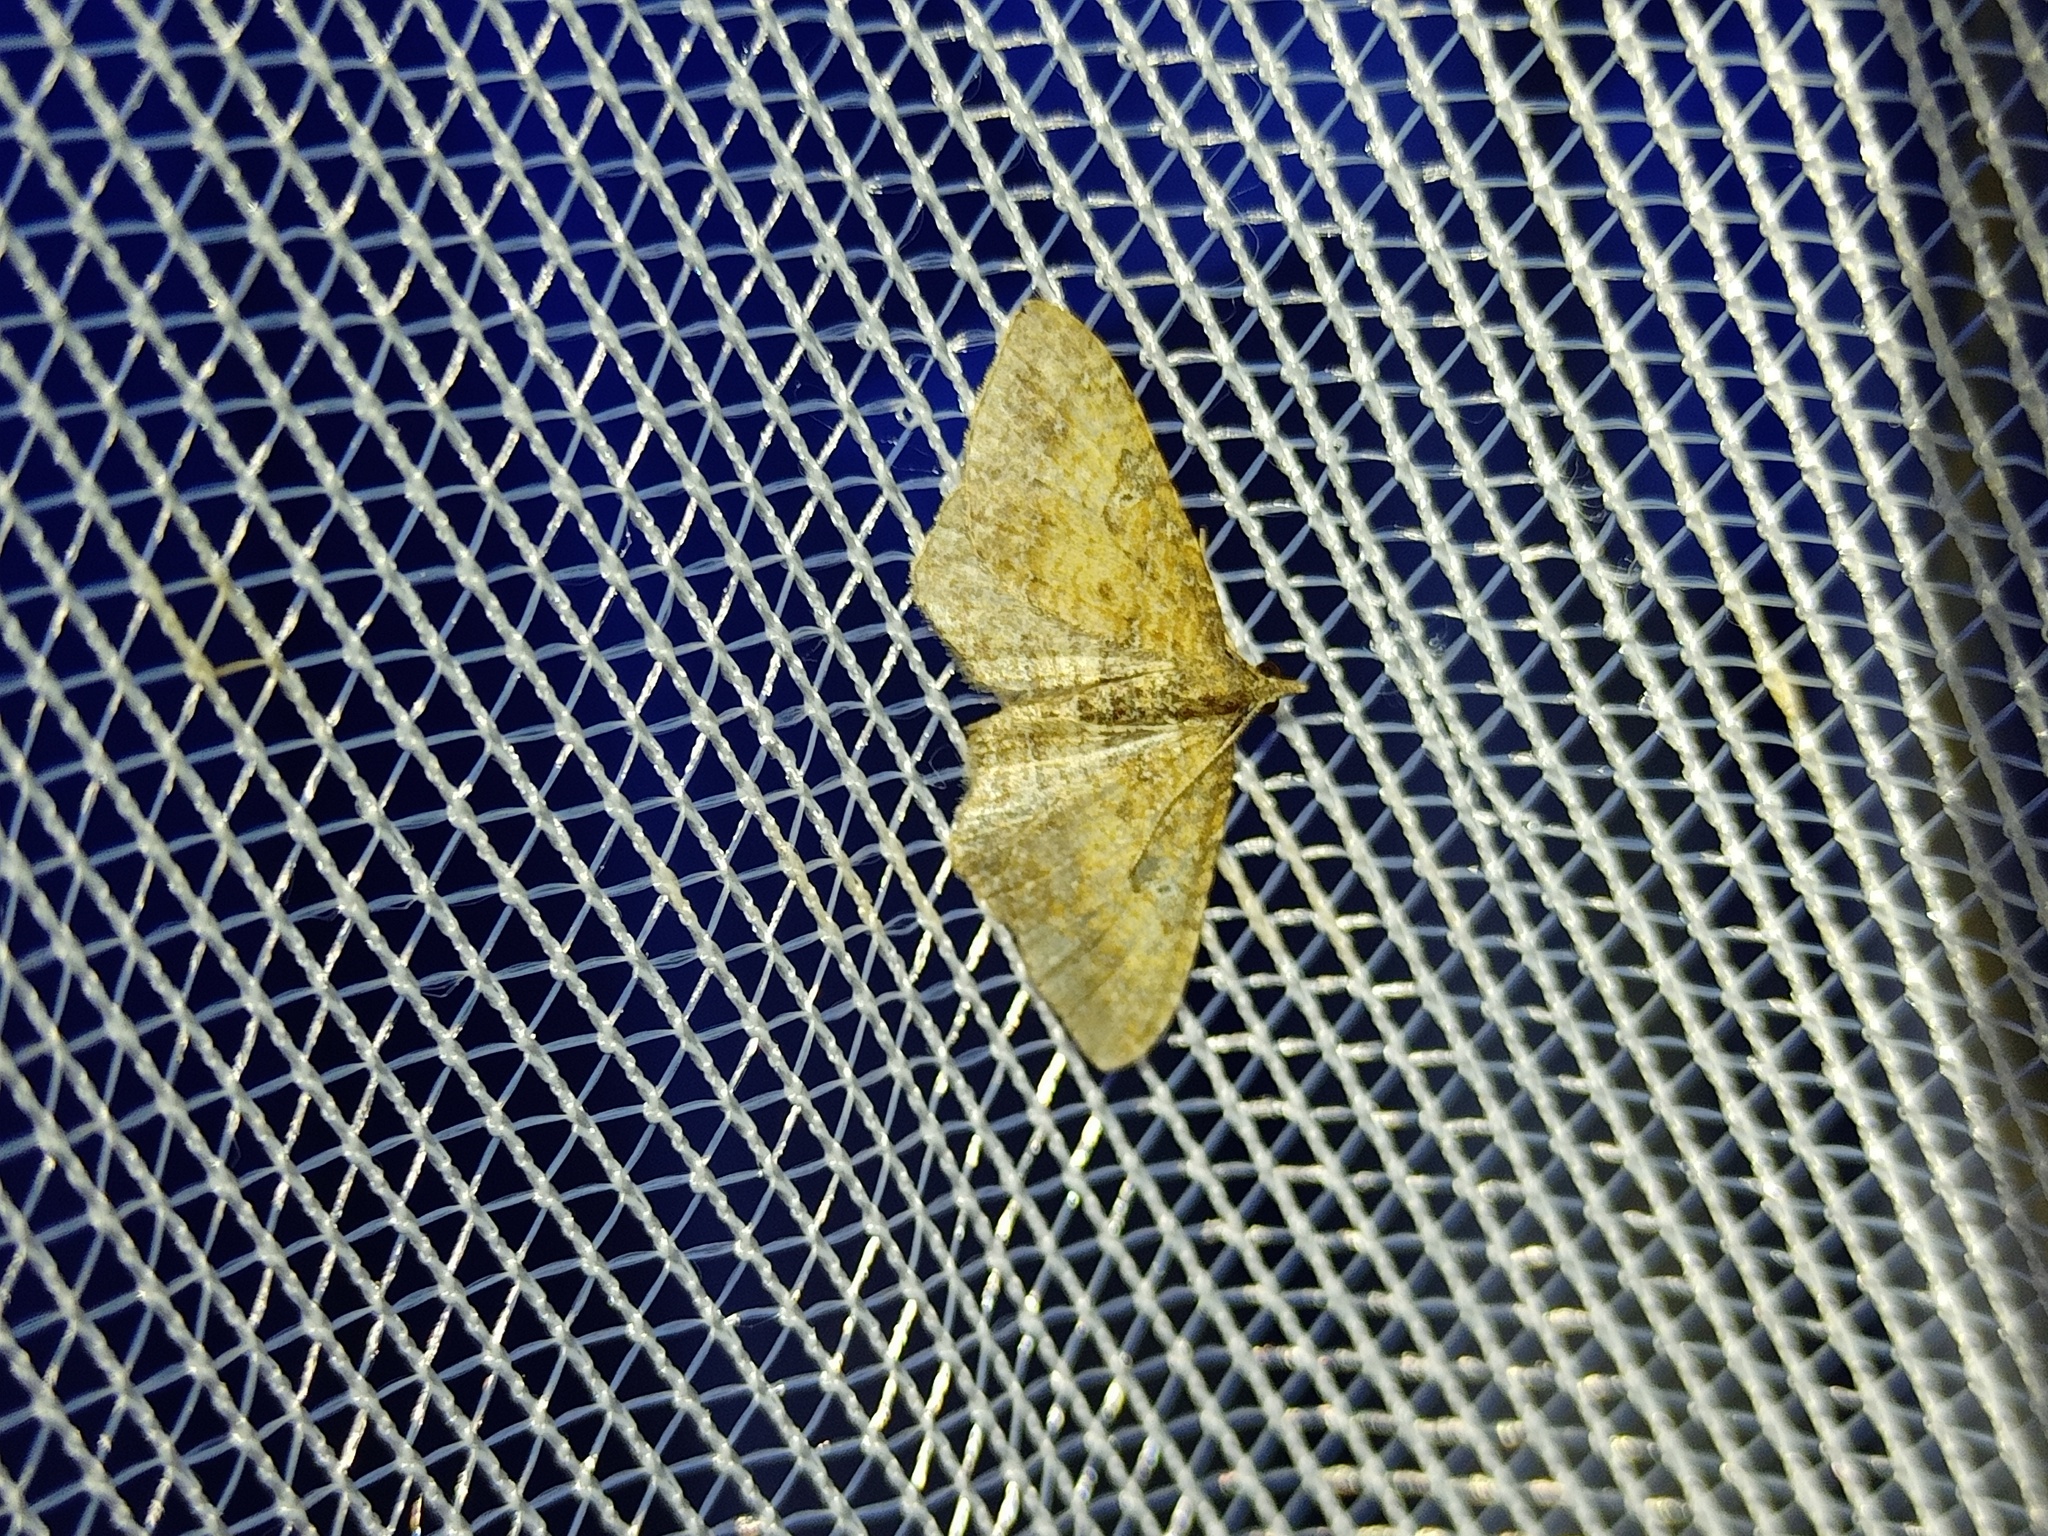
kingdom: Animalia
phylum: Arthropoda
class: Insecta
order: Lepidoptera
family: Geometridae
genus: Orthonama
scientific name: Orthonama obstipata
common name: The gem
